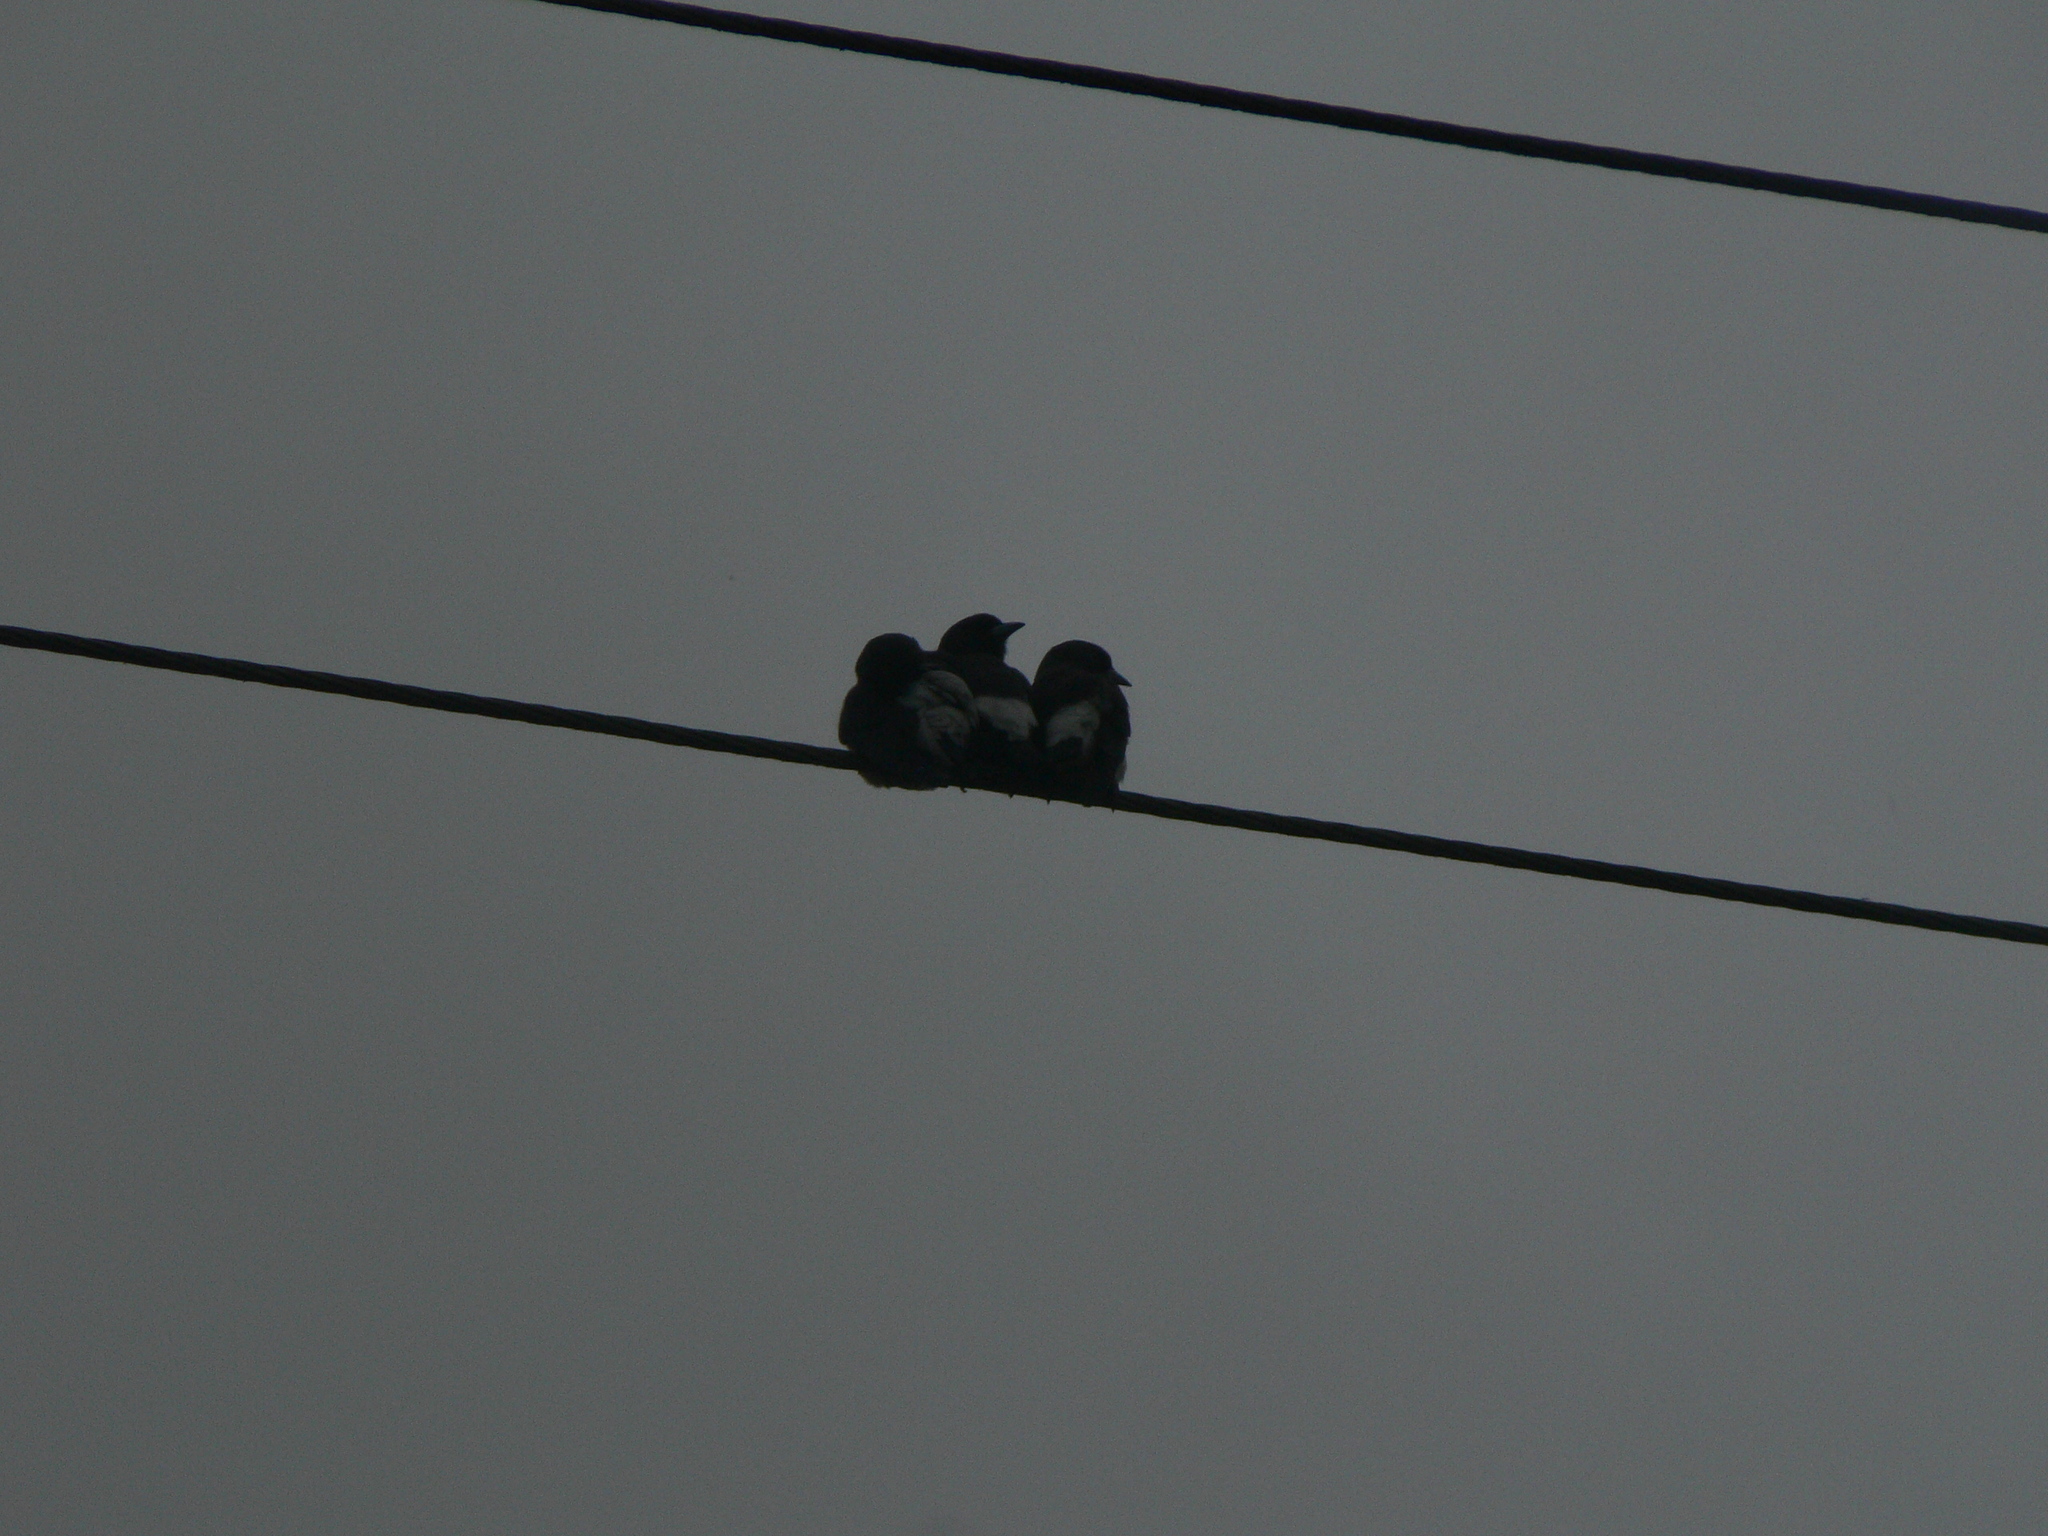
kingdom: Animalia
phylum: Chordata
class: Aves
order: Passeriformes
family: Artamidae
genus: Artamus
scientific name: Artamus leucoryn
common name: White-breasted woodswallow
